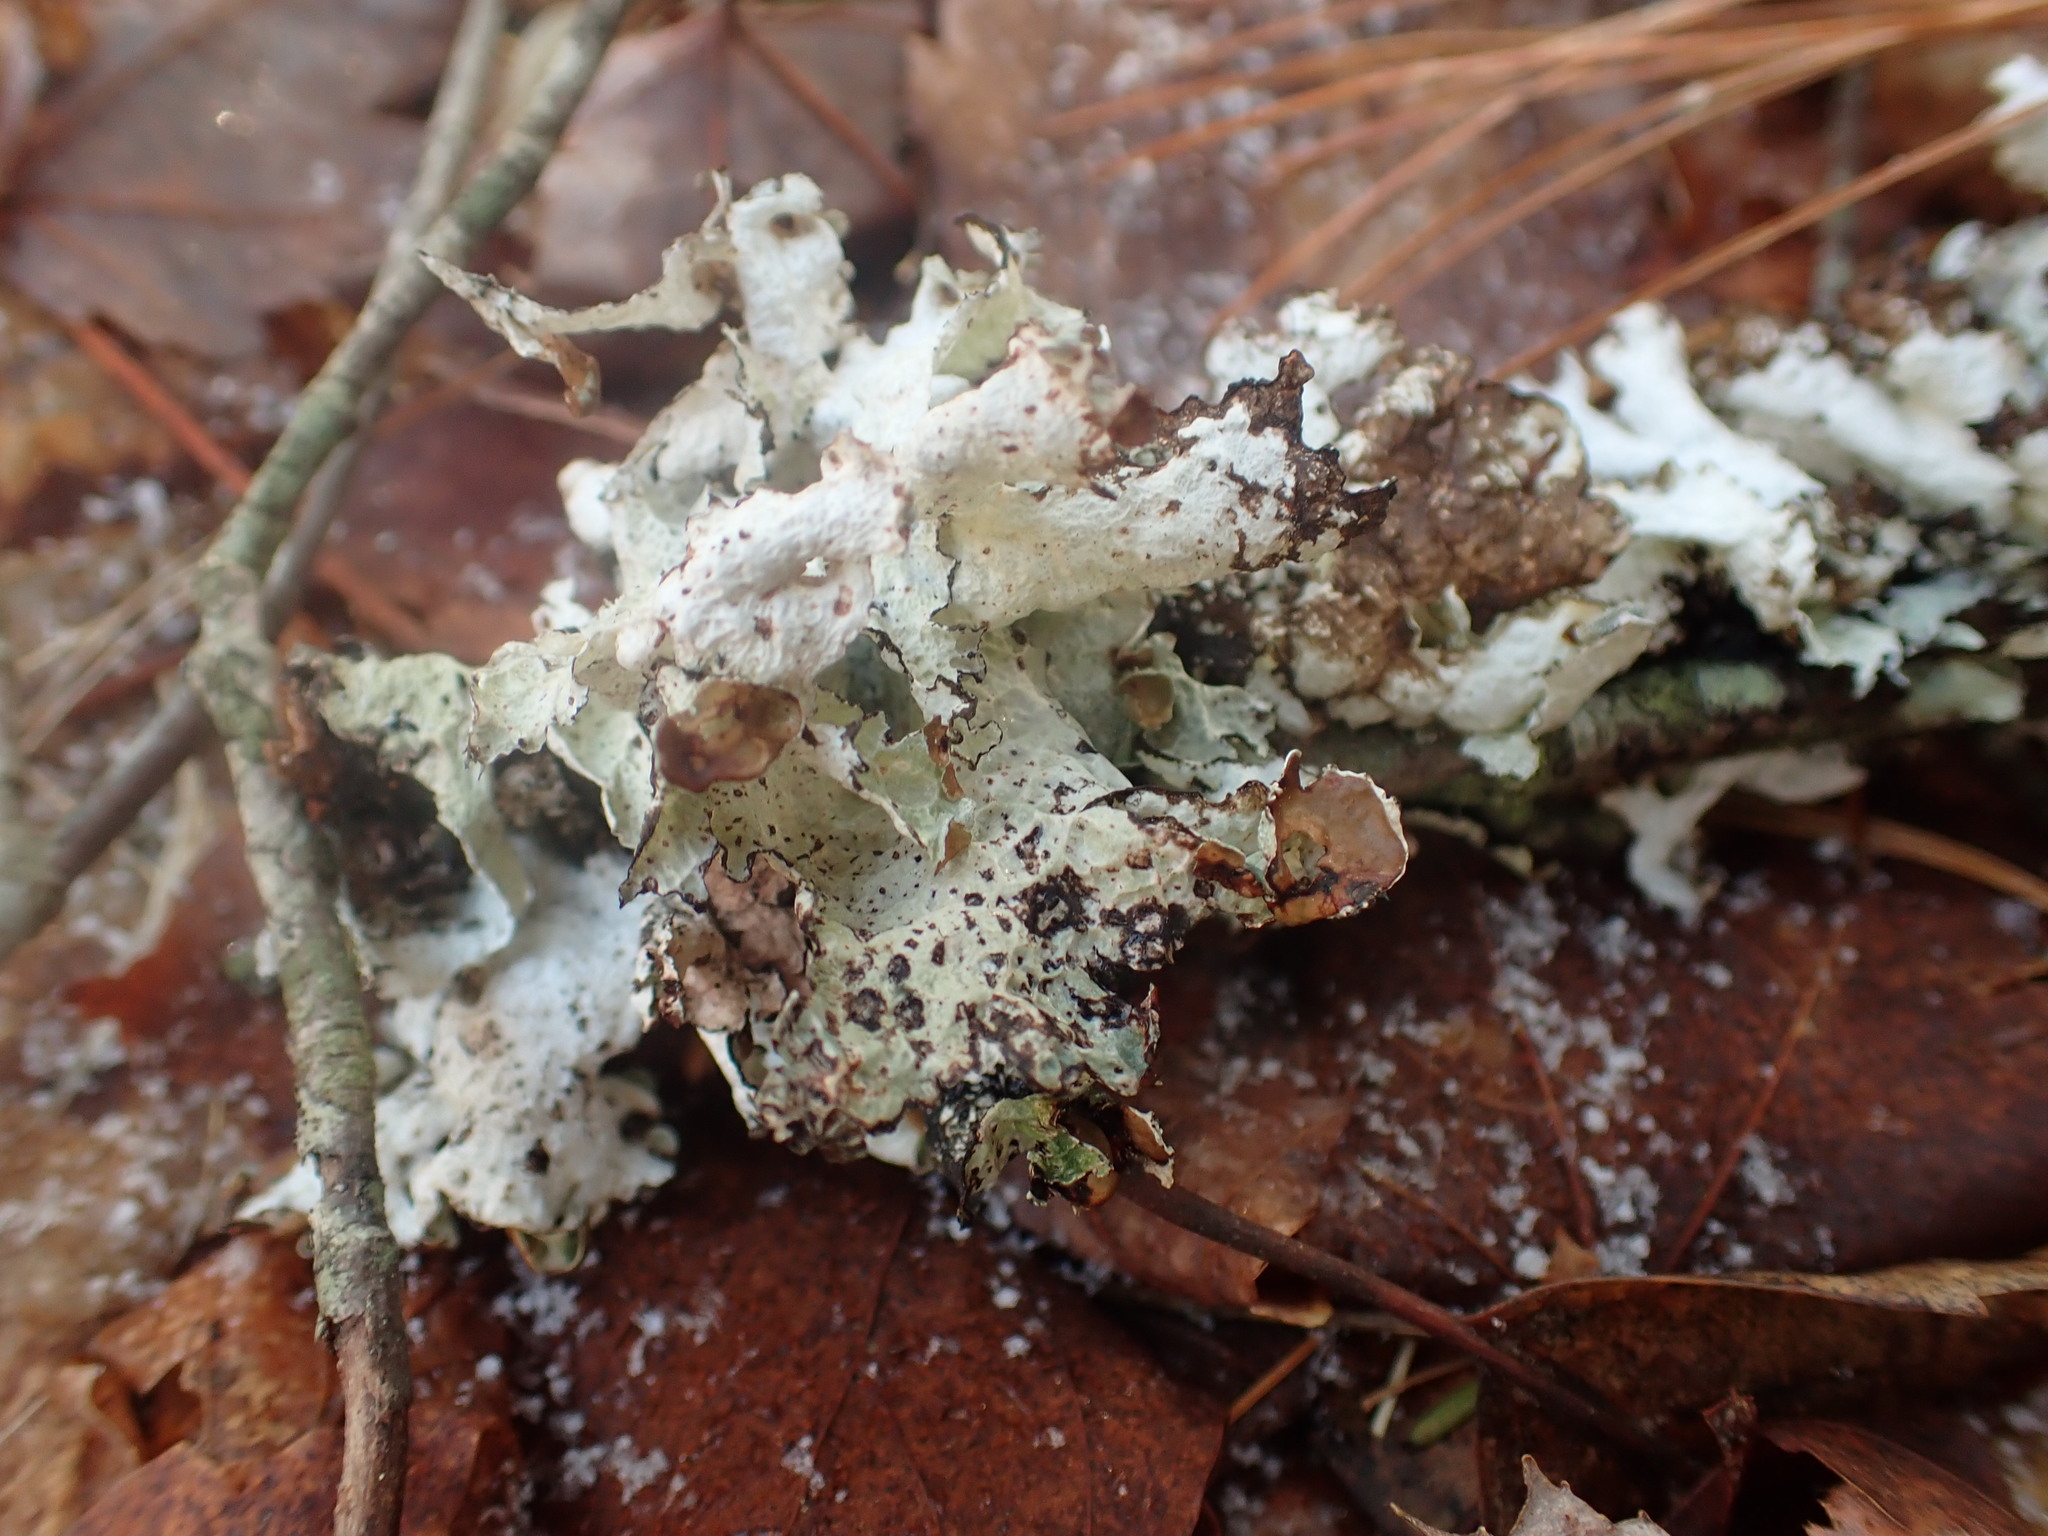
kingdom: Fungi
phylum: Ascomycota
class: Lecanoromycetes
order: Lecanorales
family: Parmeliaceae
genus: Platismatia
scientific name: Platismatia tuckermanii
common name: Crumpled rag lichen
